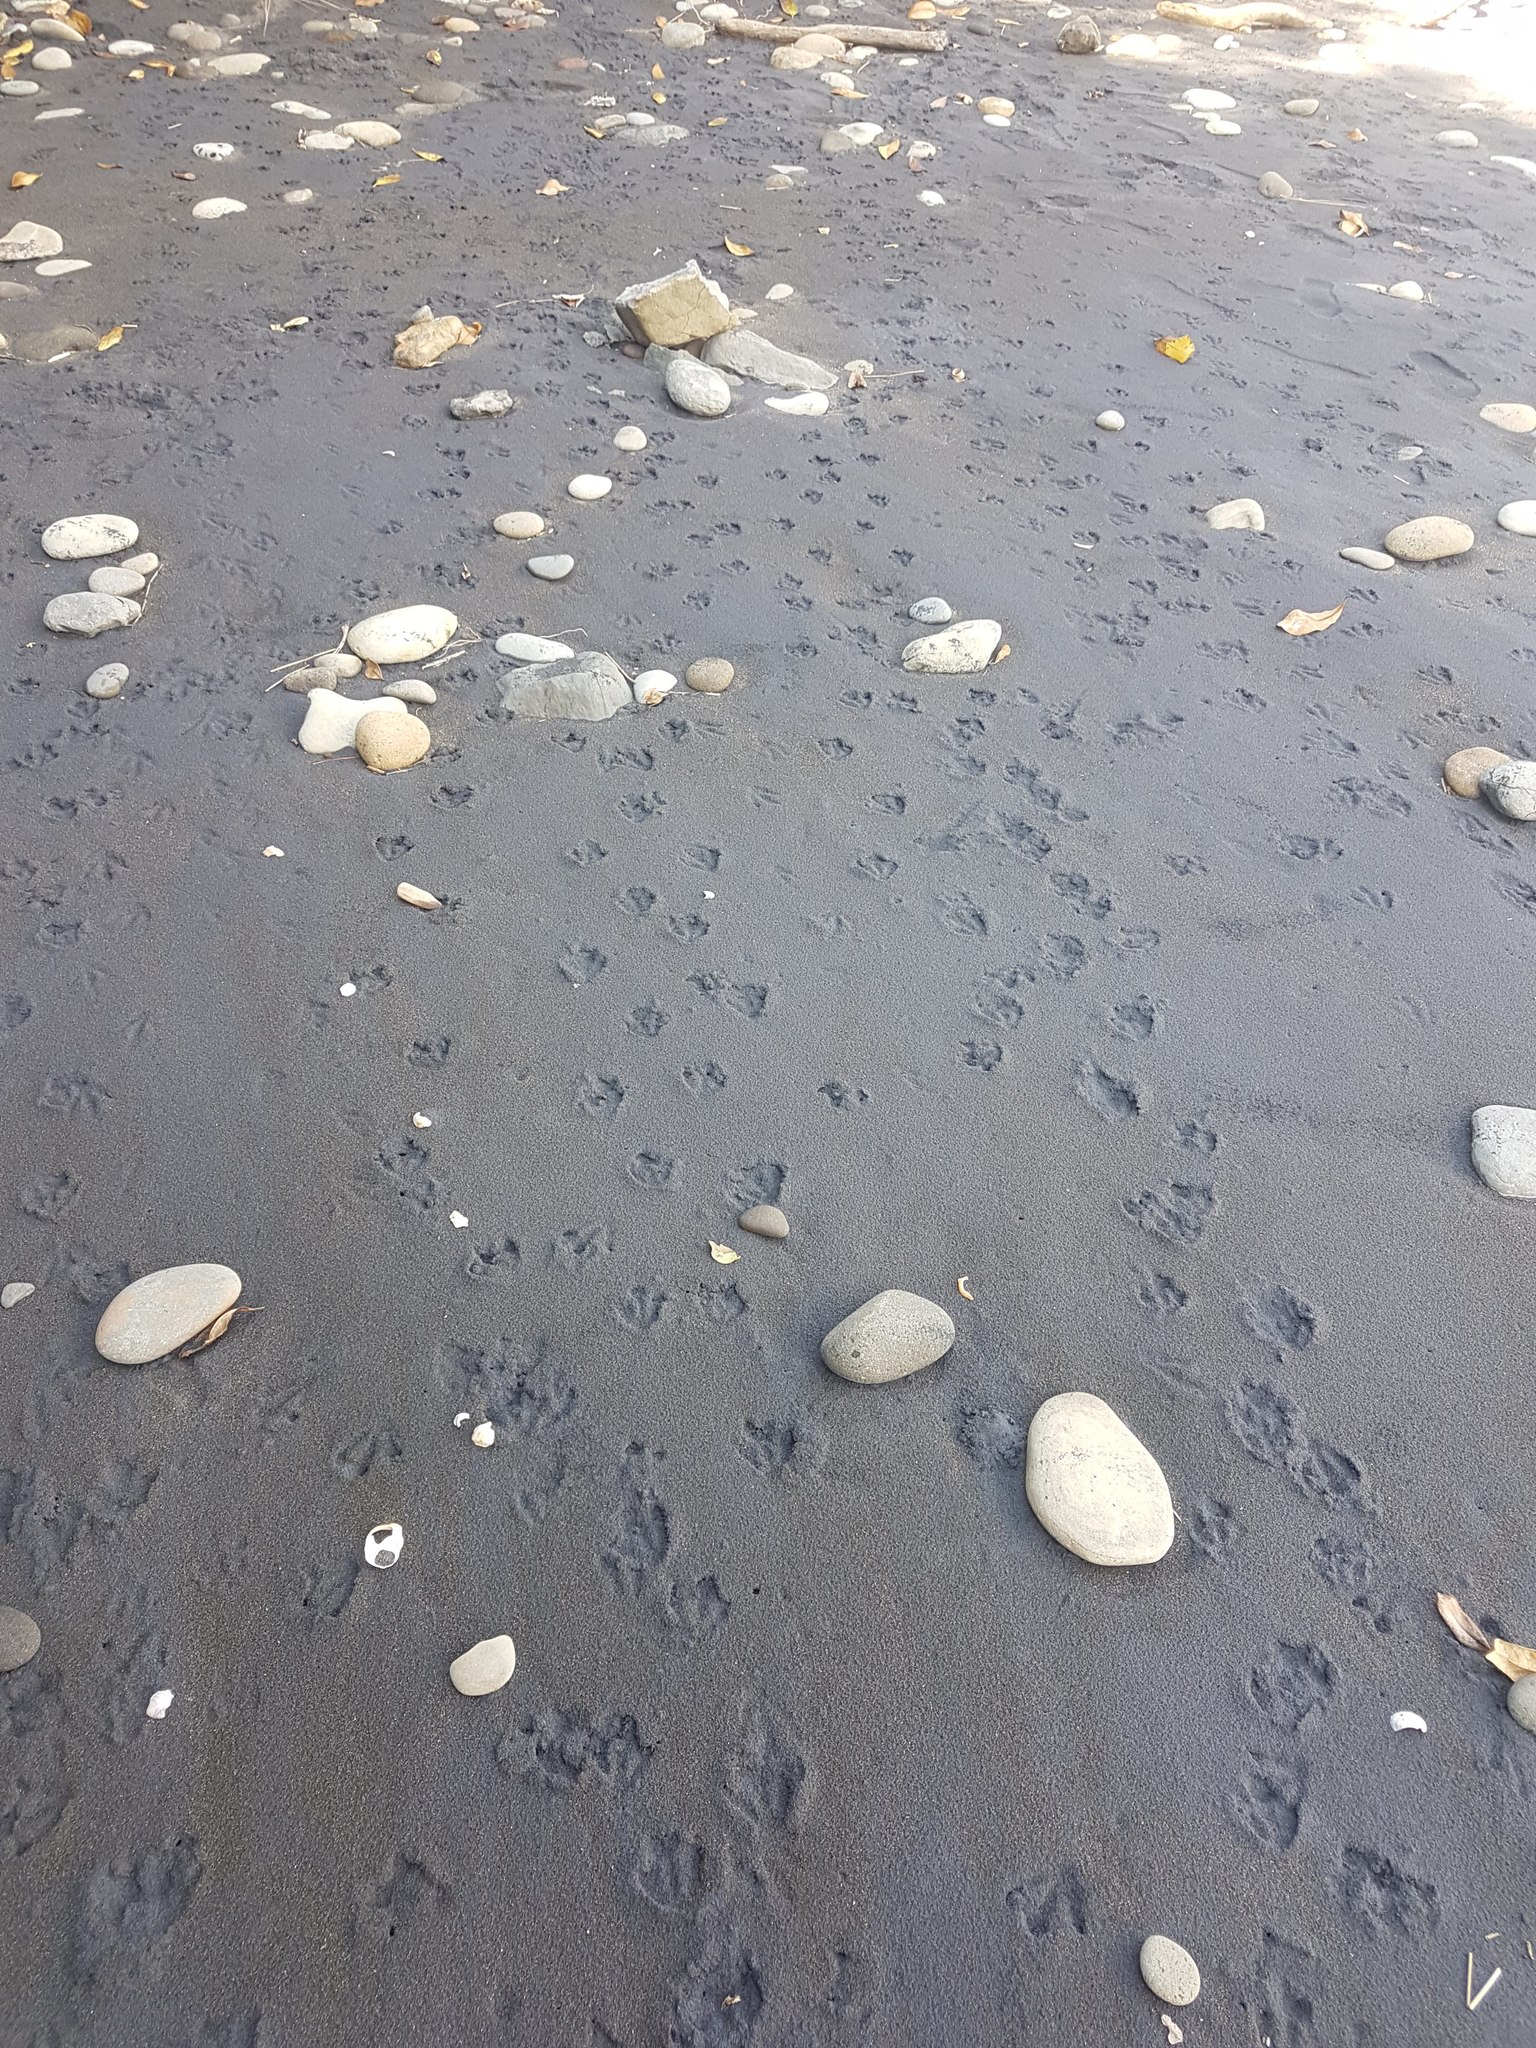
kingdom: Animalia
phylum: Chordata
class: Aves
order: Sphenisciformes
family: Spheniscidae
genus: Eudyptula
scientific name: Eudyptula minor
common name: Little penguin
